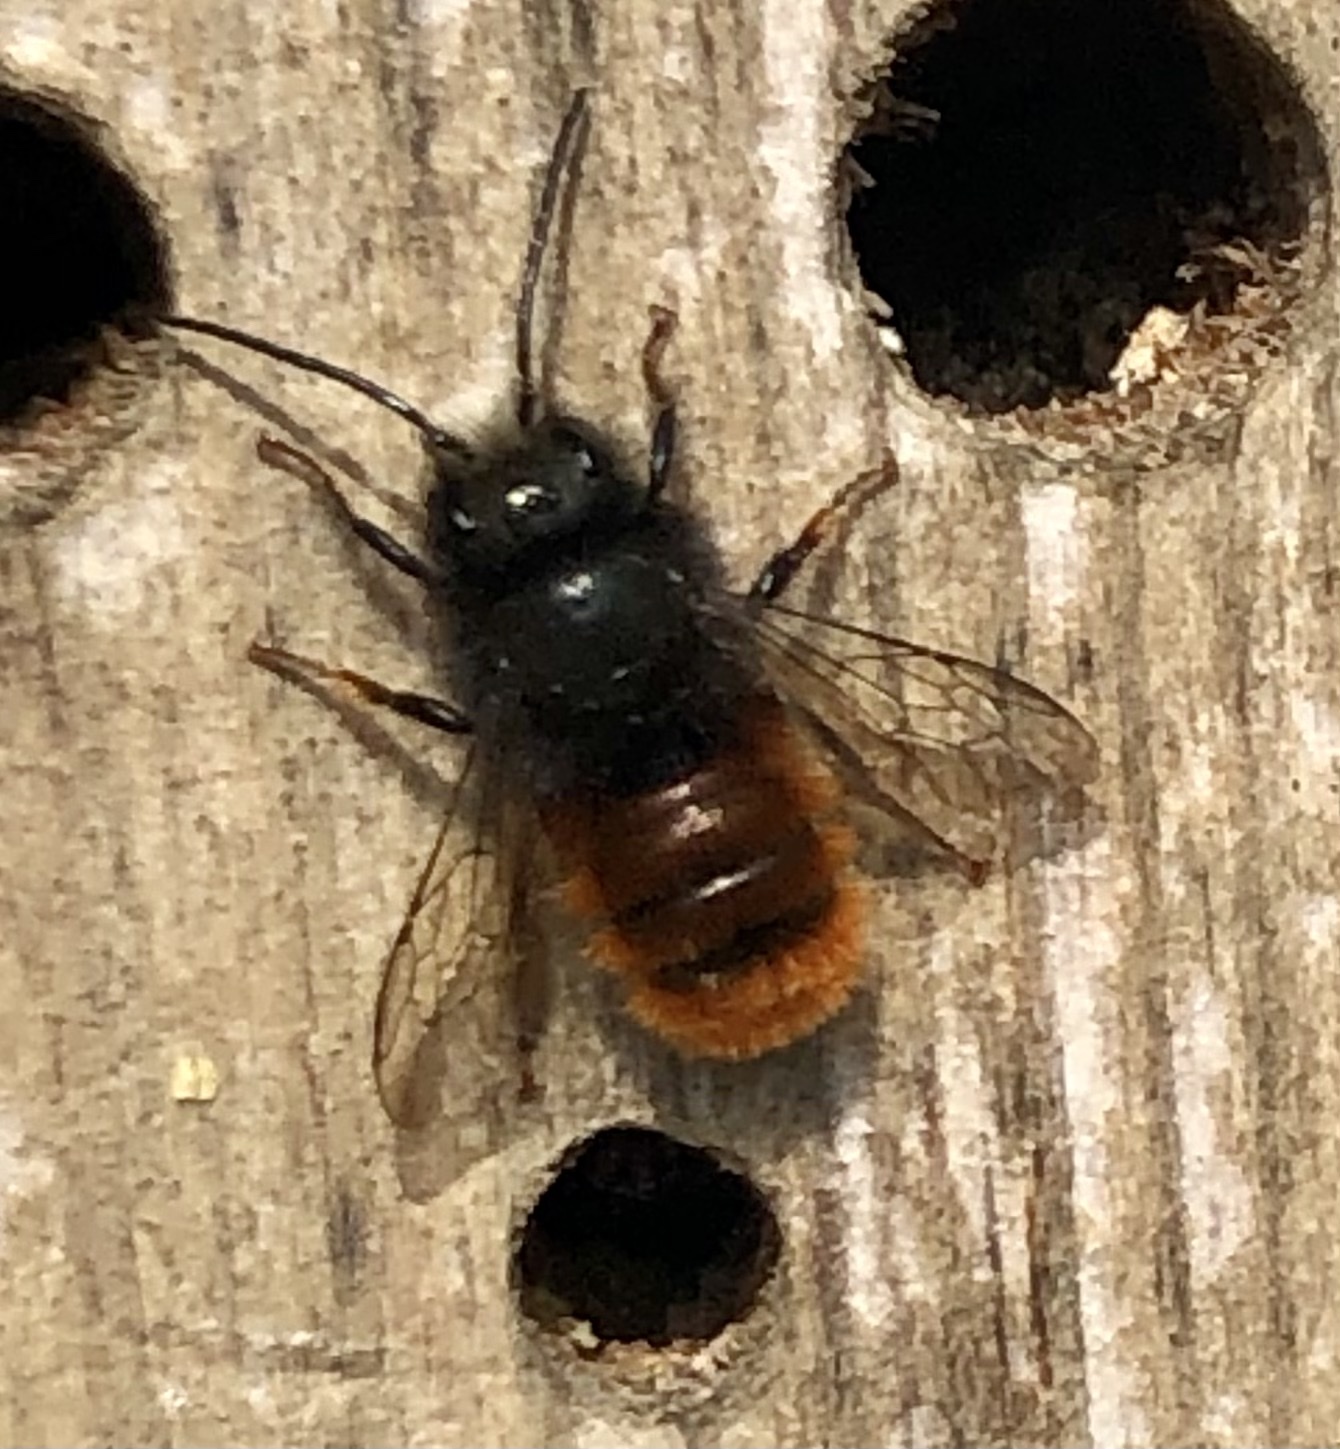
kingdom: Animalia
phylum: Arthropoda
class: Insecta
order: Hymenoptera
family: Megachilidae
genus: Osmia
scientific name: Osmia cornuta
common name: Mason bee
